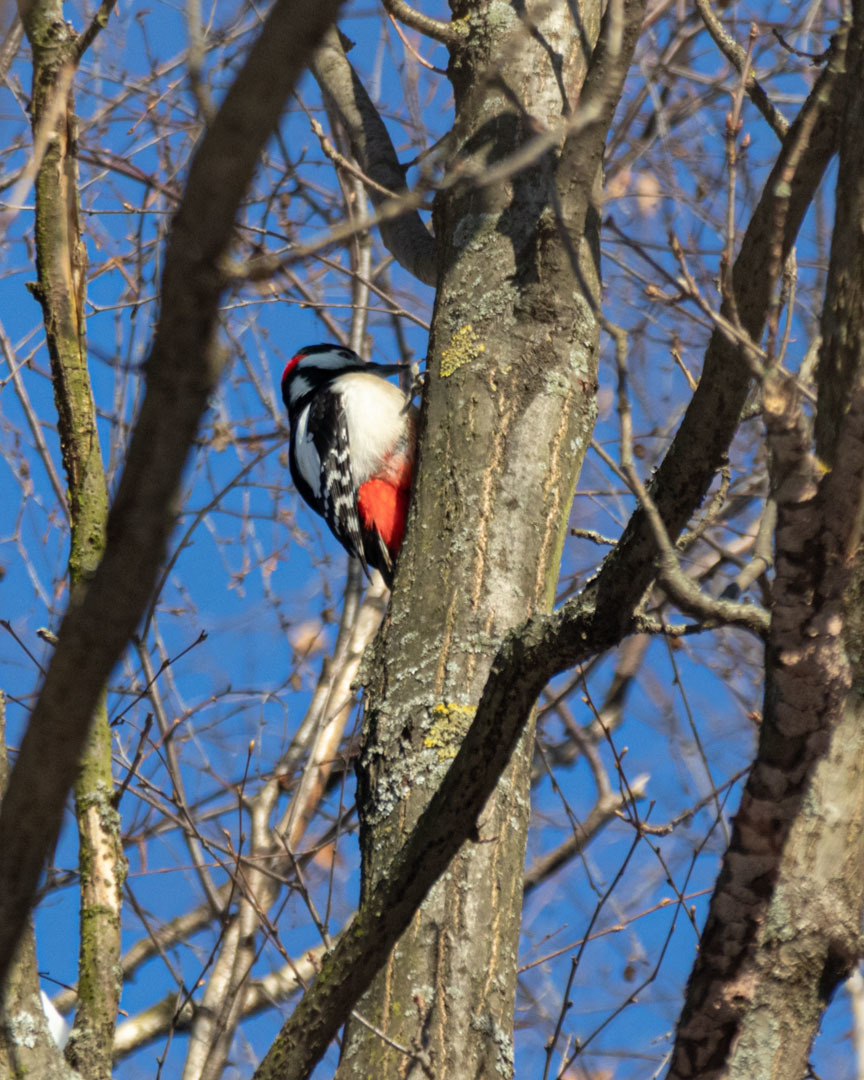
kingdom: Animalia
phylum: Chordata
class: Aves
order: Piciformes
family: Picidae
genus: Dendrocopos
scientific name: Dendrocopos major
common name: Great spotted woodpecker
